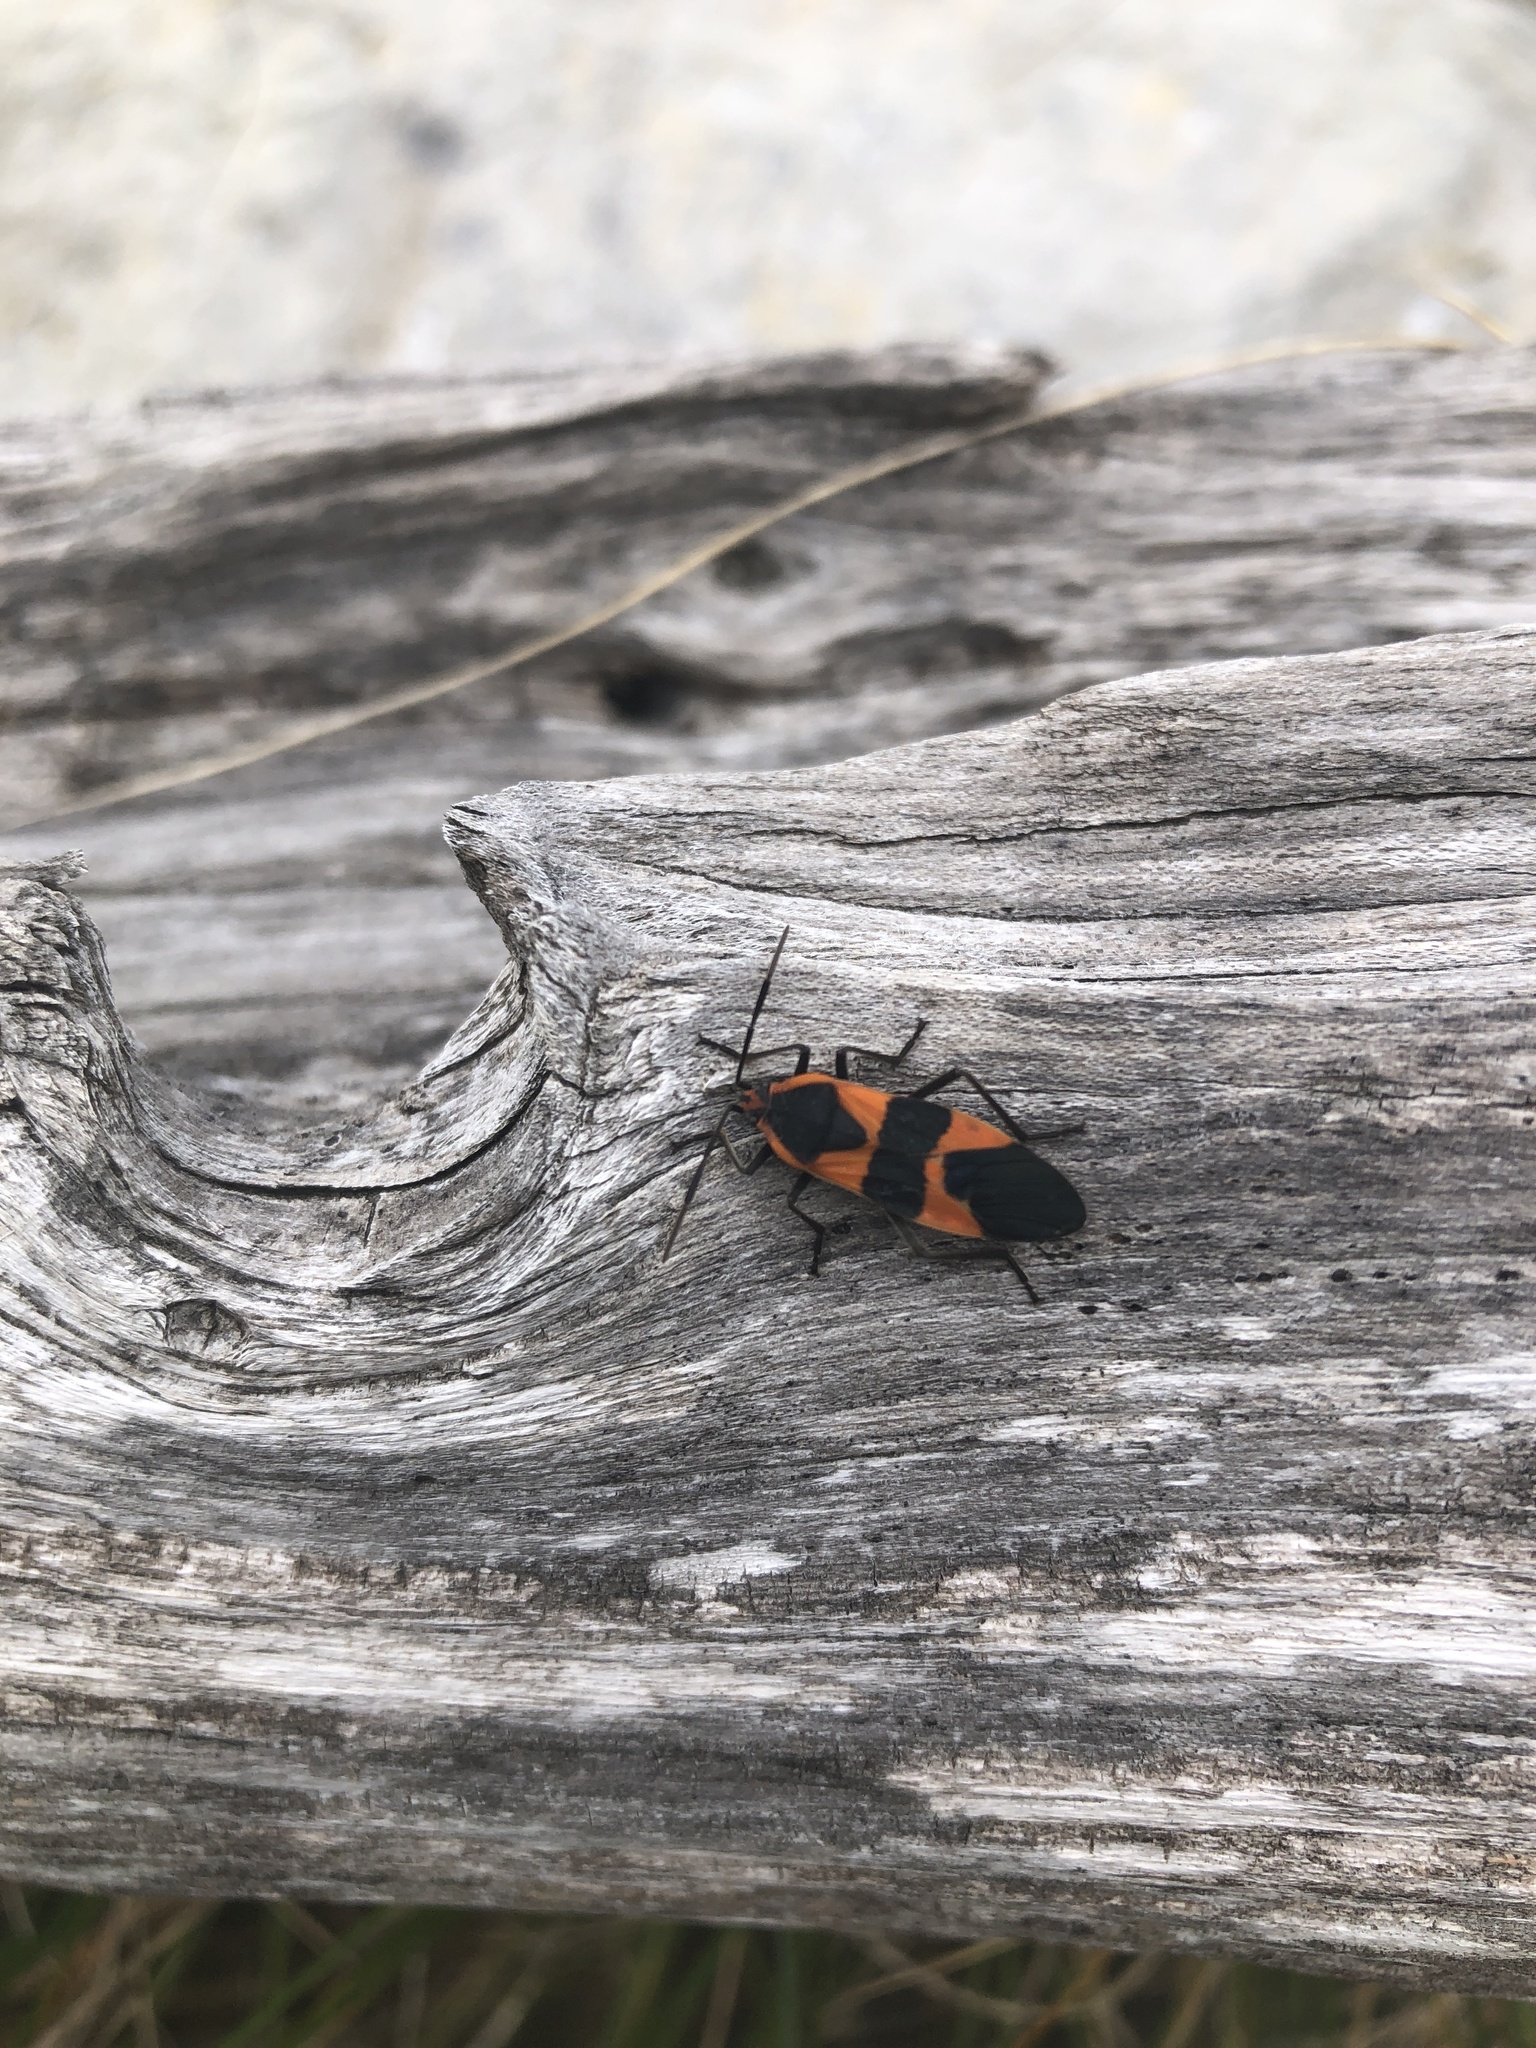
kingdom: Animalia
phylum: Arthropoda
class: Insecta
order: Hemiptera
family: Lygaeidae
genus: Oncopeltus
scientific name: Oncopeltus fasciatus
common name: Large milkweed bug
